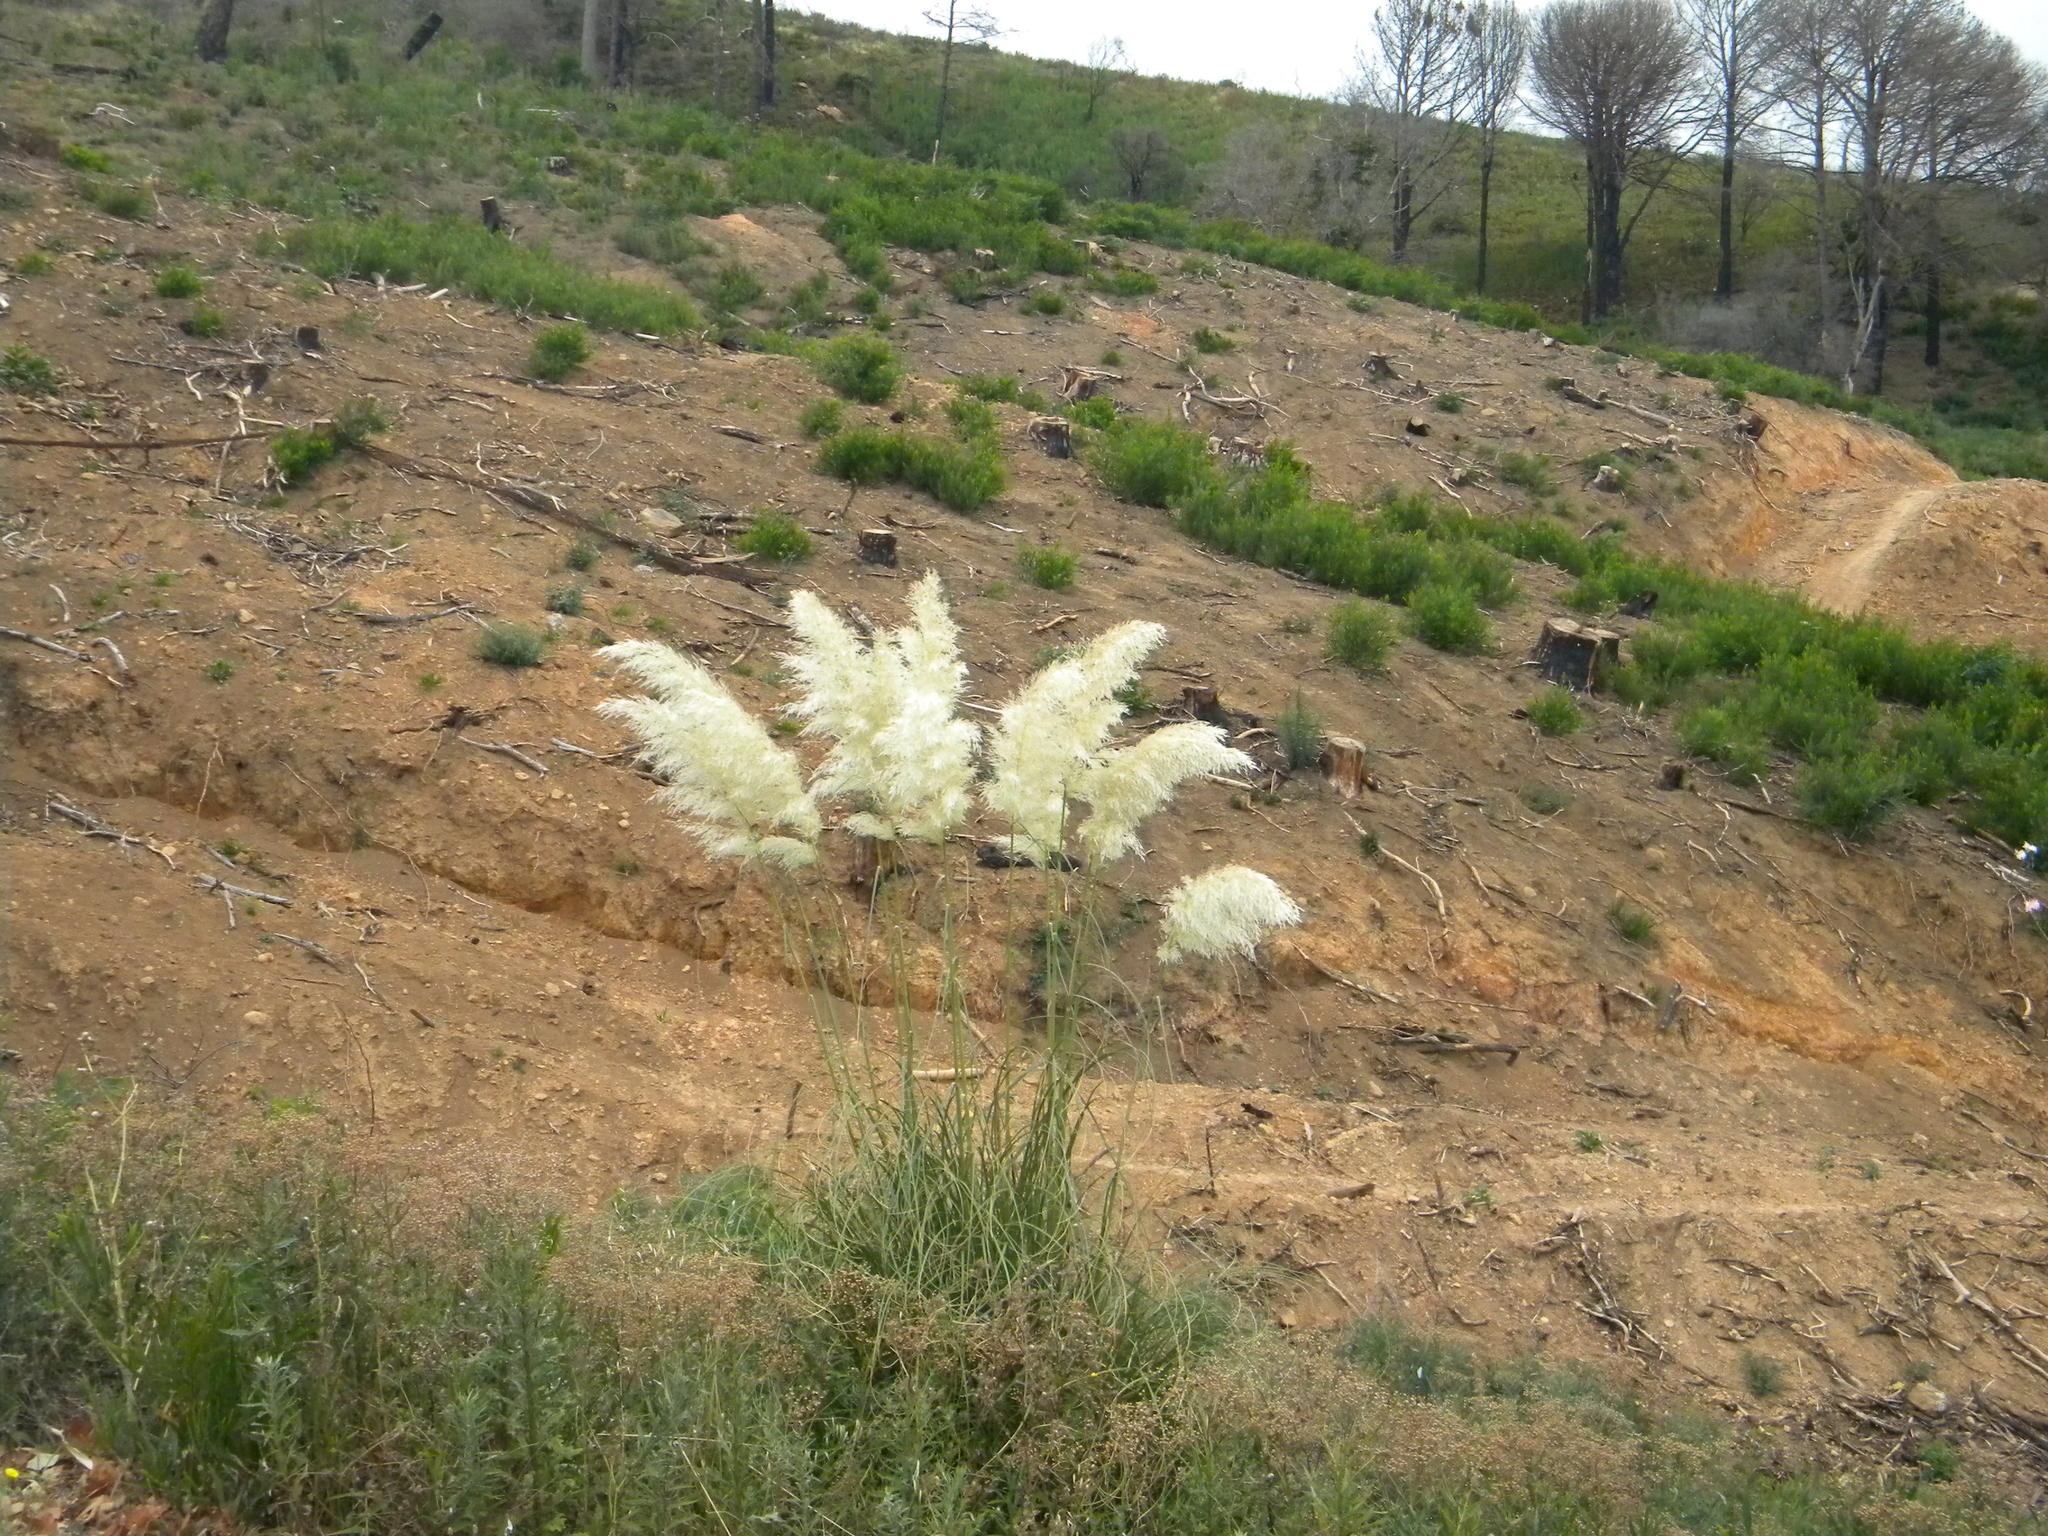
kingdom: Plantae
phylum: Tracheophyta
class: Liliopsida
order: Poales
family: Poaceae
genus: Cortaderia
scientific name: Cortaderia selloana
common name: Uruguayan pampas grass
